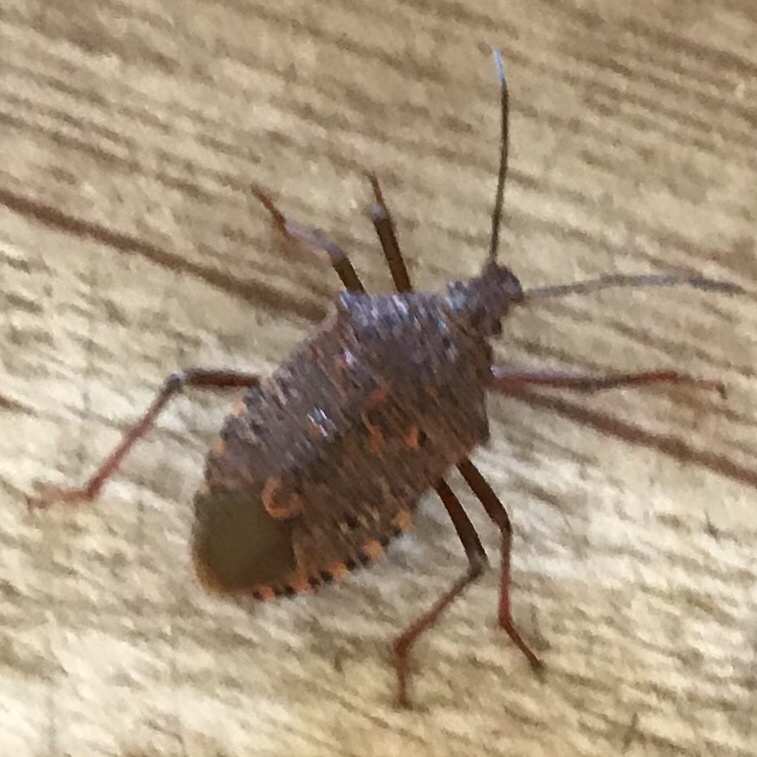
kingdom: Animalia
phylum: Arthropoda
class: Insecta
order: Hemiptera
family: Pentatomidae
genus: Apodiphus
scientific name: Apodiphus
